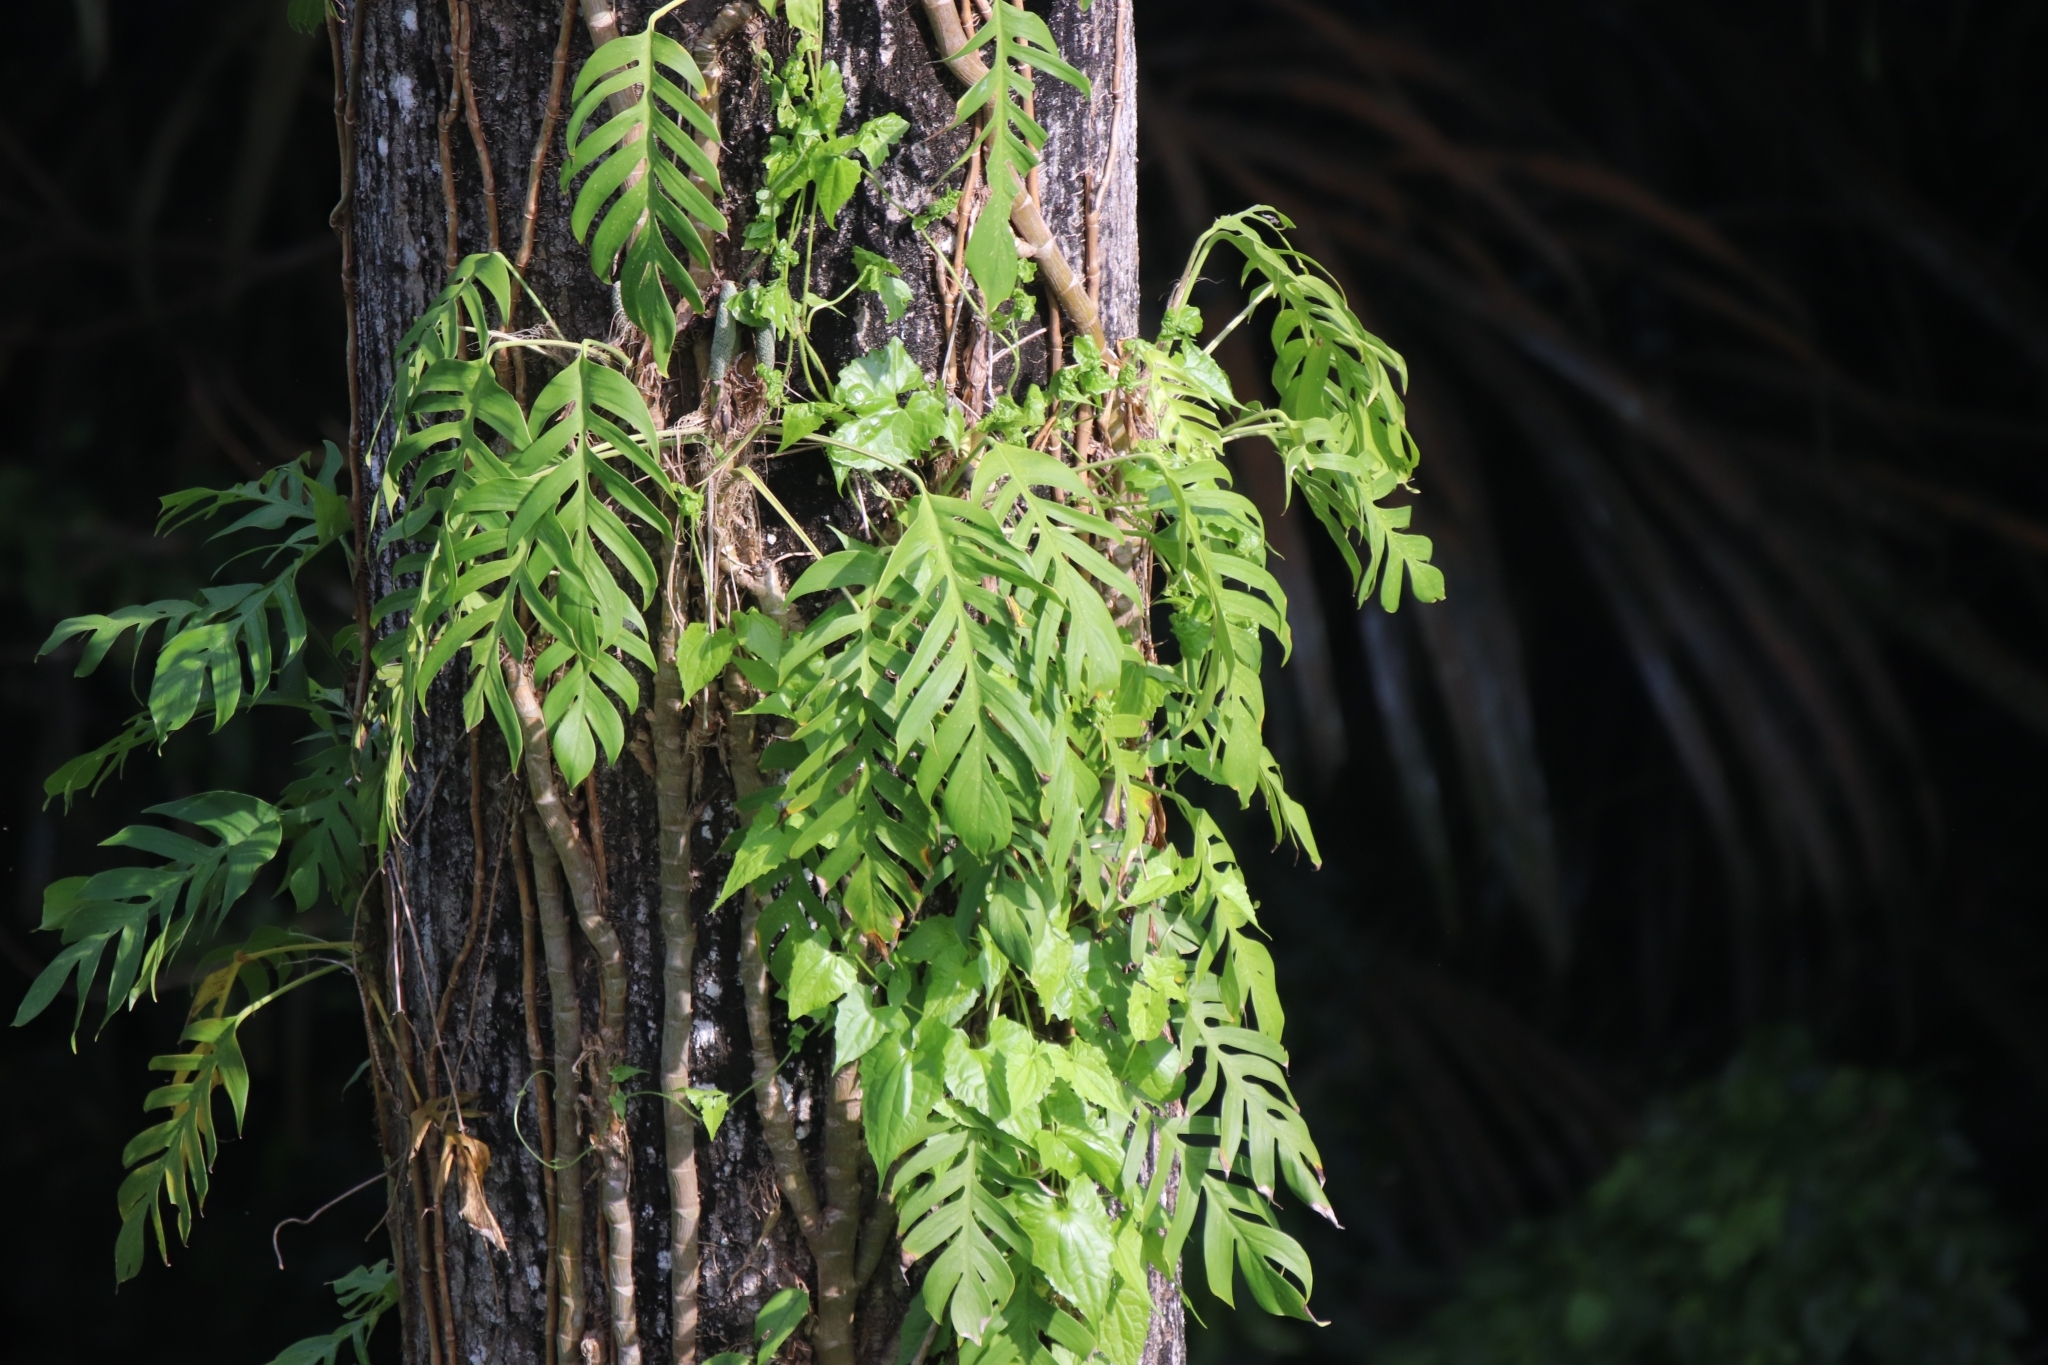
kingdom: Plantae
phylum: Tracheophyta
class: Liliopsida
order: Alismatales
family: Araceae
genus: Epipremnum
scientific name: Epipremnum pinnatum
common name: Centipede tongavine
